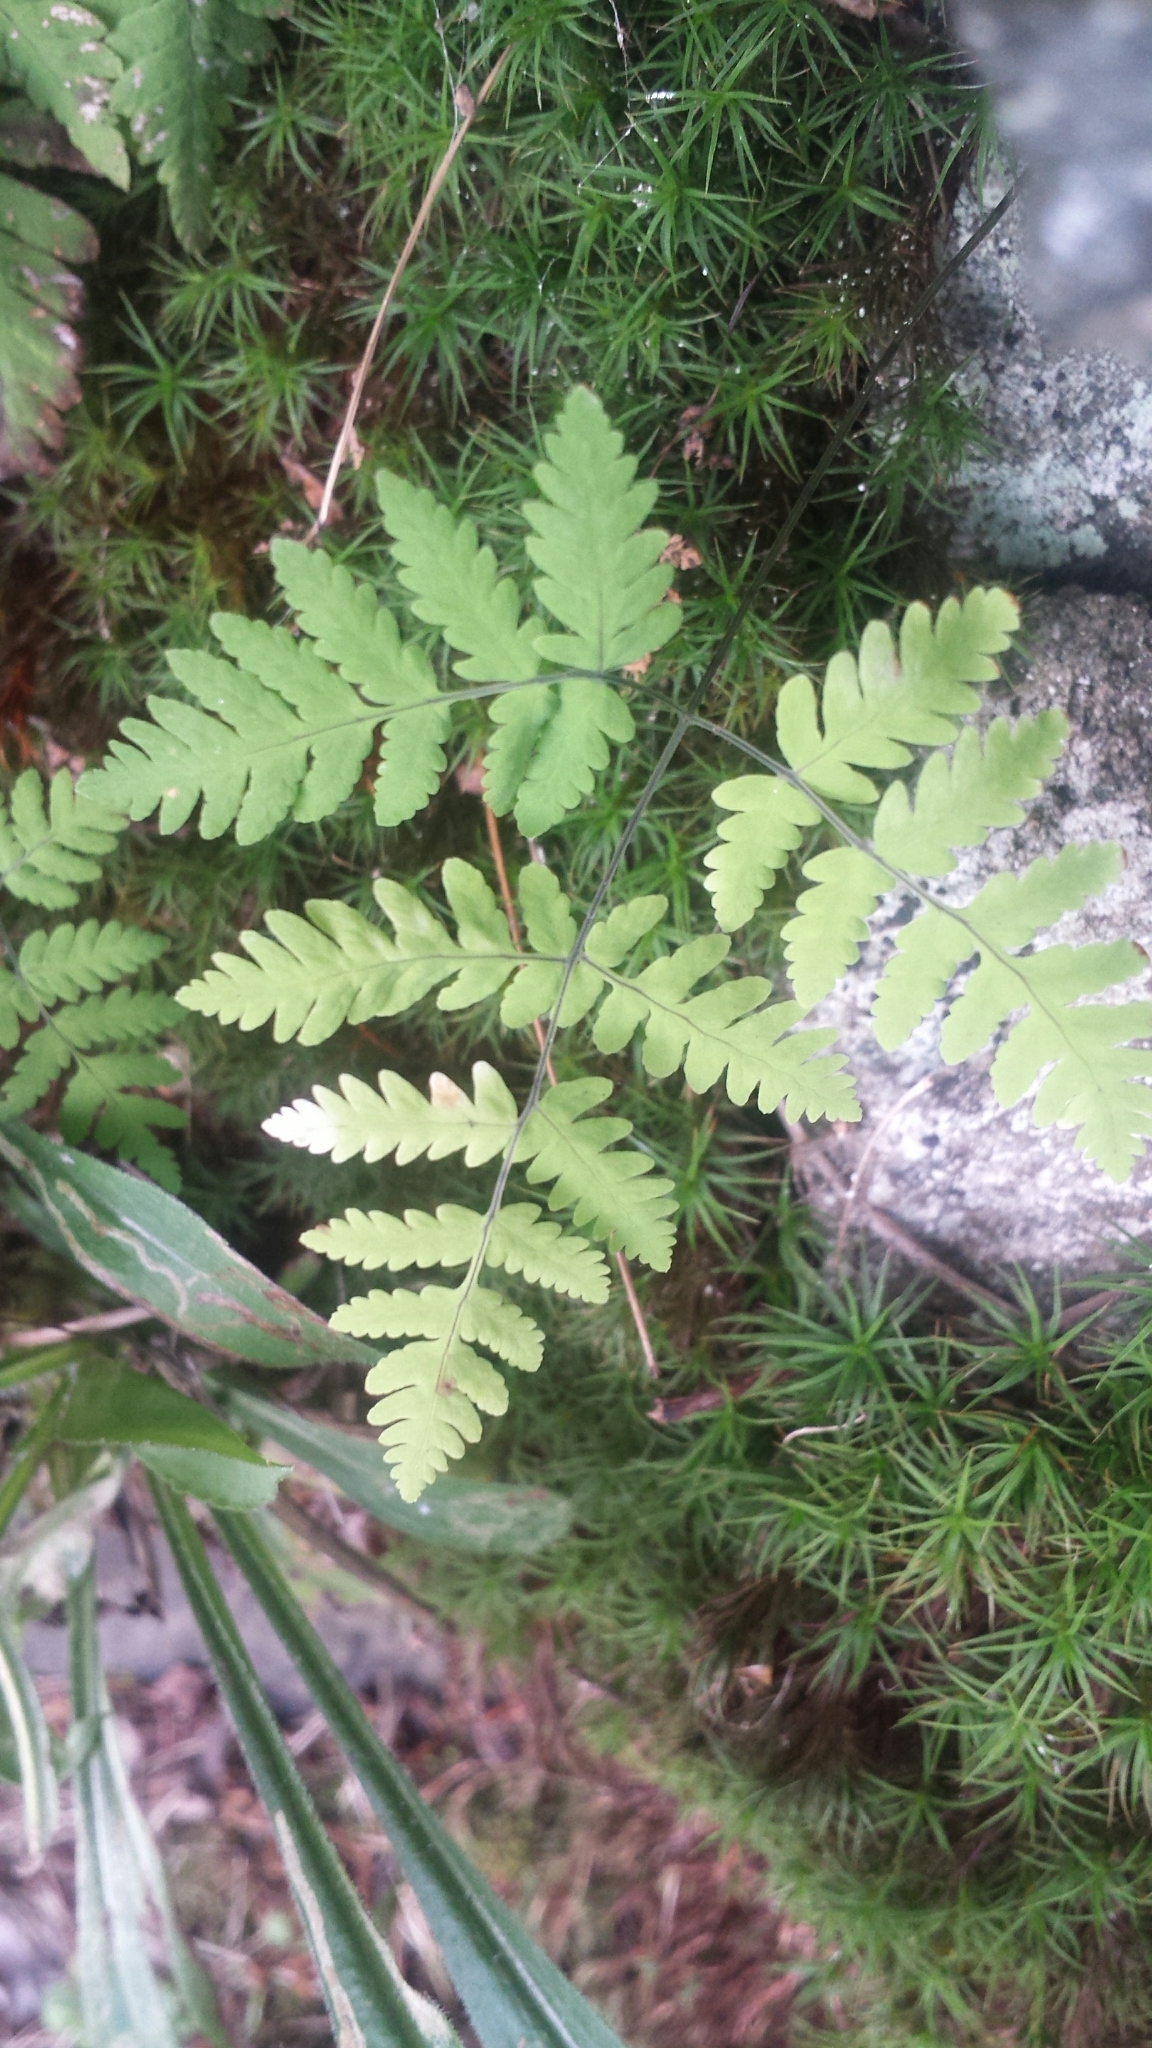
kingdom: Plantae
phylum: Tracheophyta
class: Polypodiopsida
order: Polypodiales
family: Cystopteridaceae
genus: Gymnocarpium
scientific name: Gymnocarpium dryopteris
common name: Oak fern
